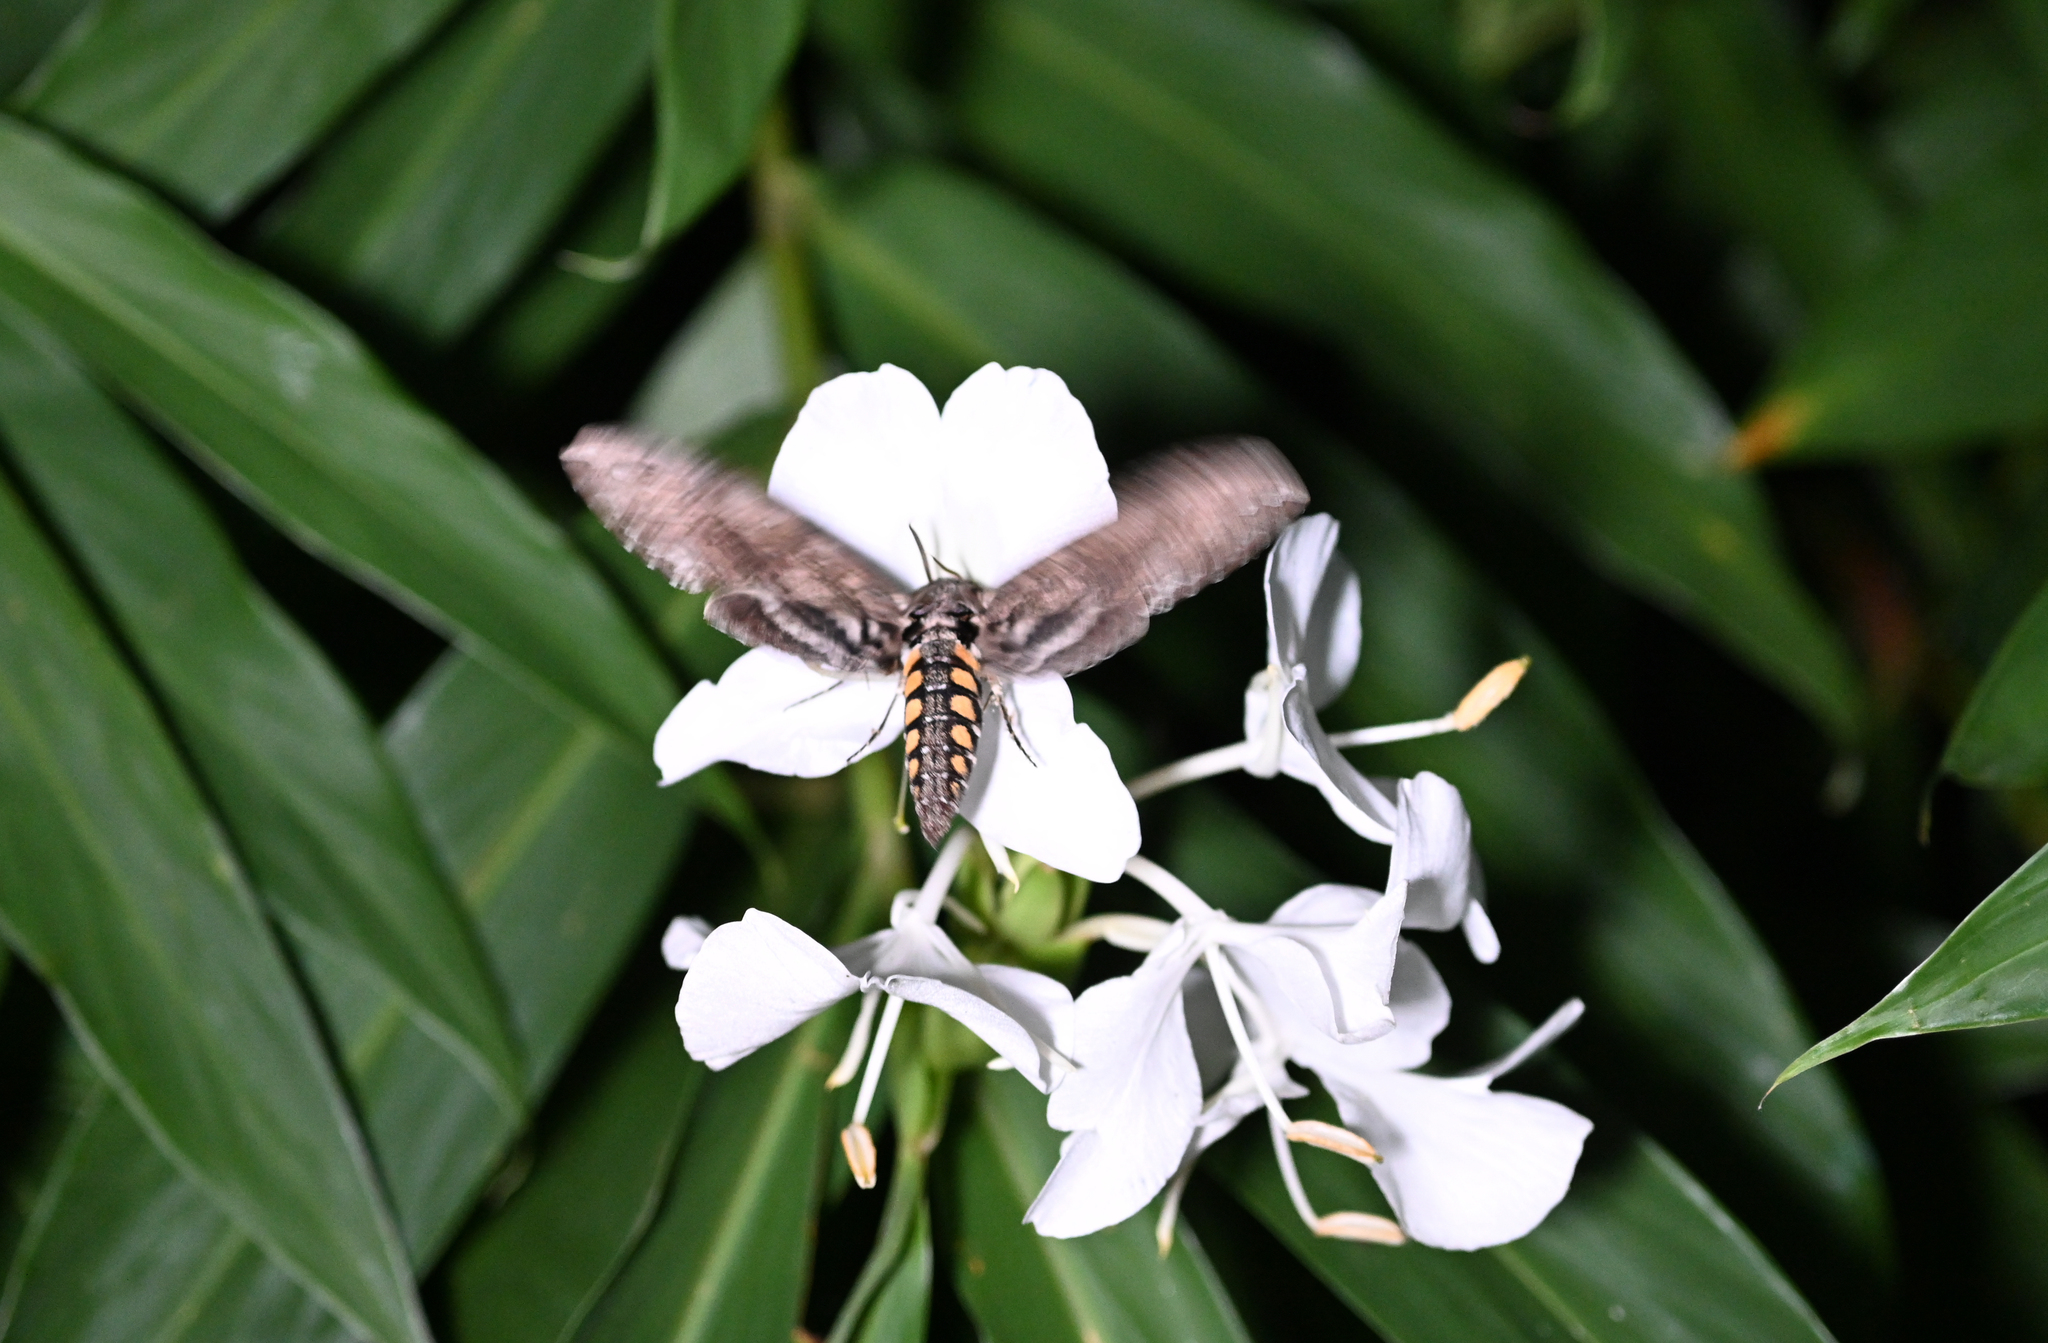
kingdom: Animalia
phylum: Arthropoda
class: Insecta
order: Lepidoptera
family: Sphingidae
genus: Manduca
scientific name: Manduca sexta
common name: Carolina sphinx
